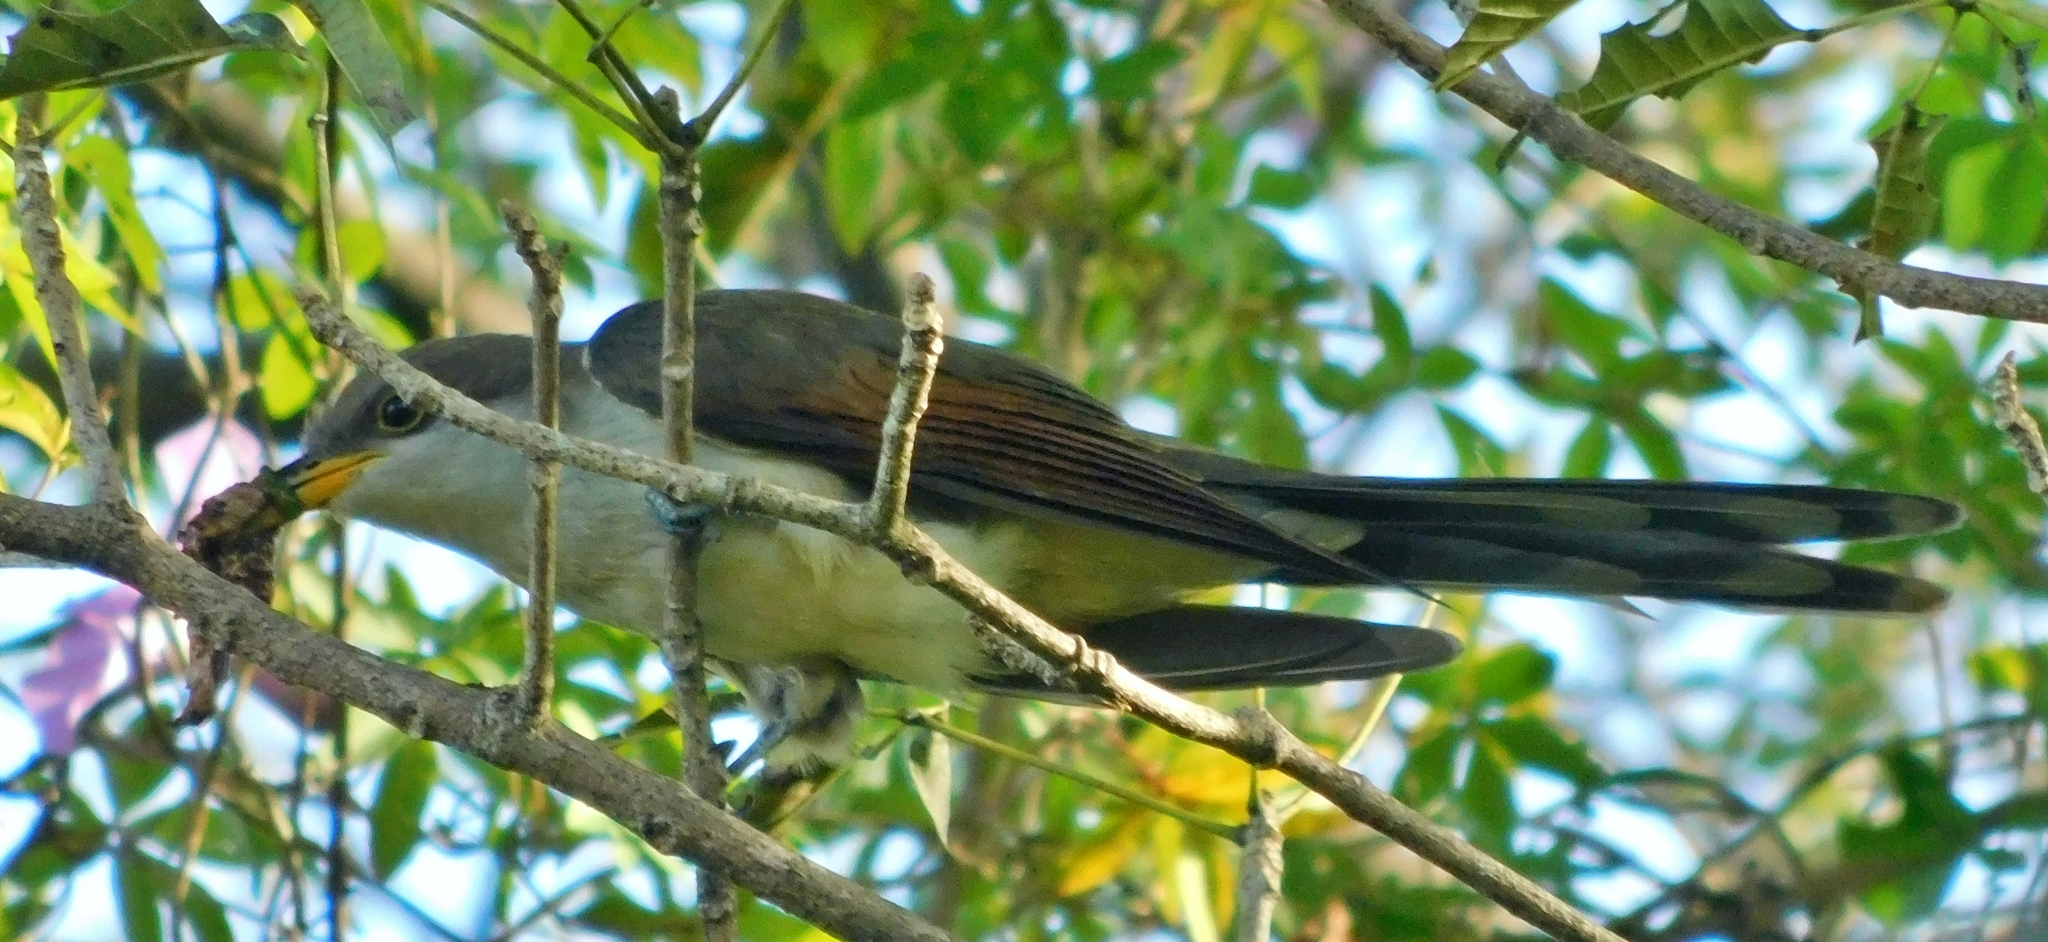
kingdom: Animalia
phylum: Chordata
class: Aves
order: Cuculiformes
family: Cuculidae
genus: Coccyzus
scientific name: Coccyzus americanus
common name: Yellow-billed cuckoo
